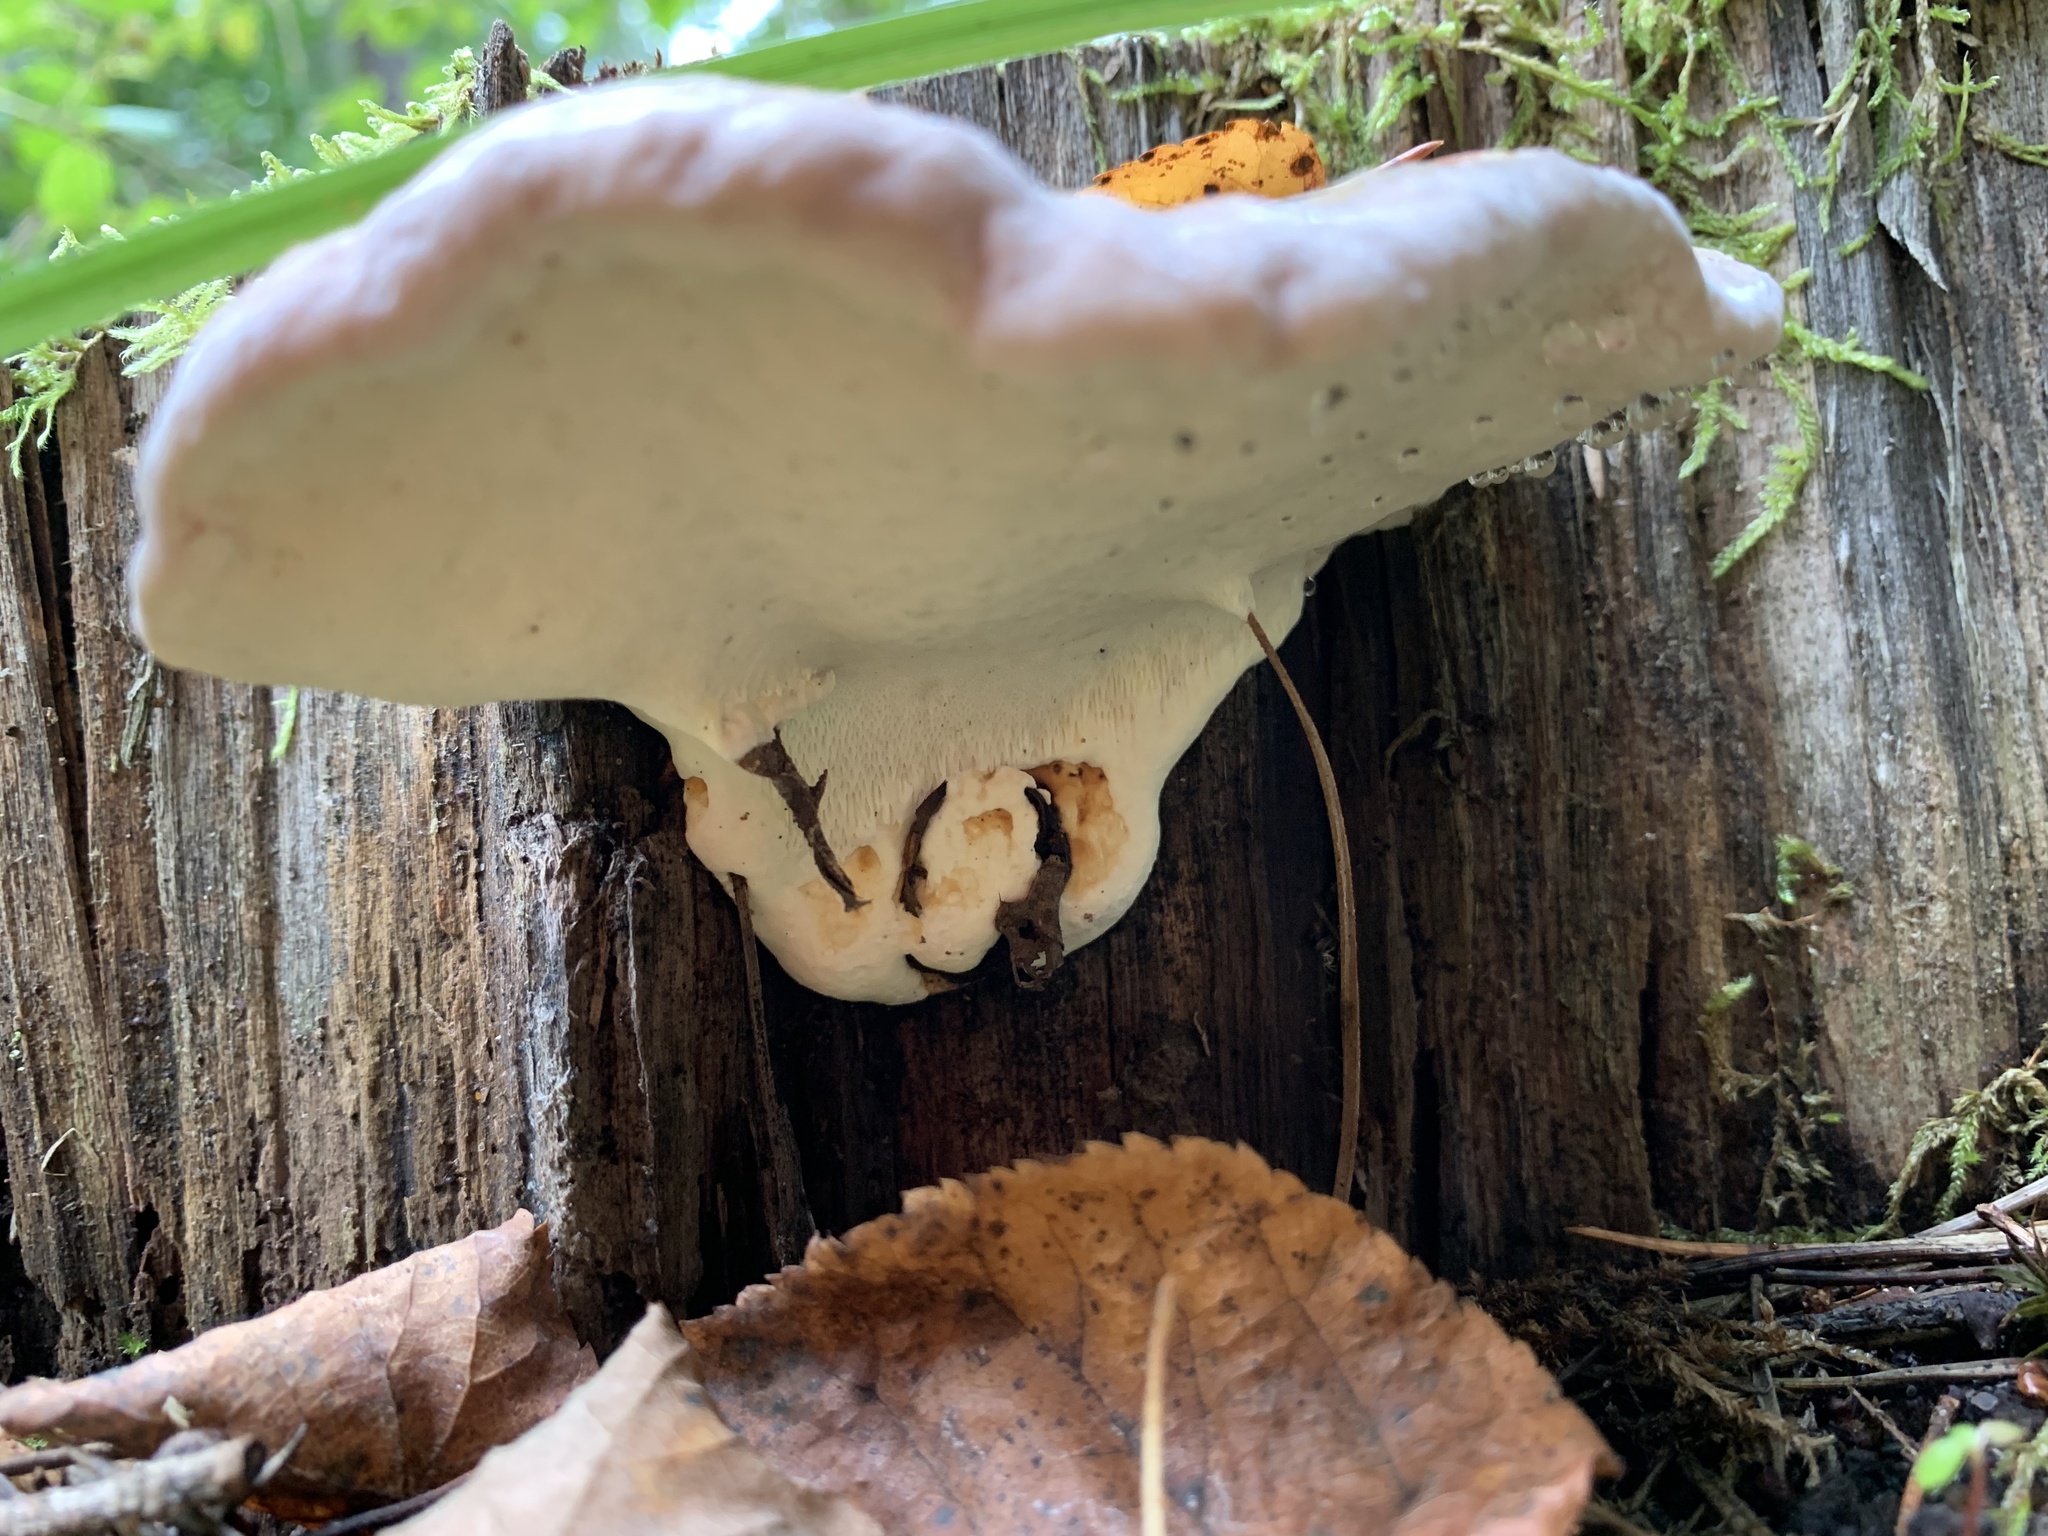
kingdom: Fungi
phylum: Basidiomycota
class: Agaricomycetes
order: Polyporales
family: Fomitopsidaceae
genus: Fomitopsis
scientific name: Fomitopsis pinicola
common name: Red-belted bracket
